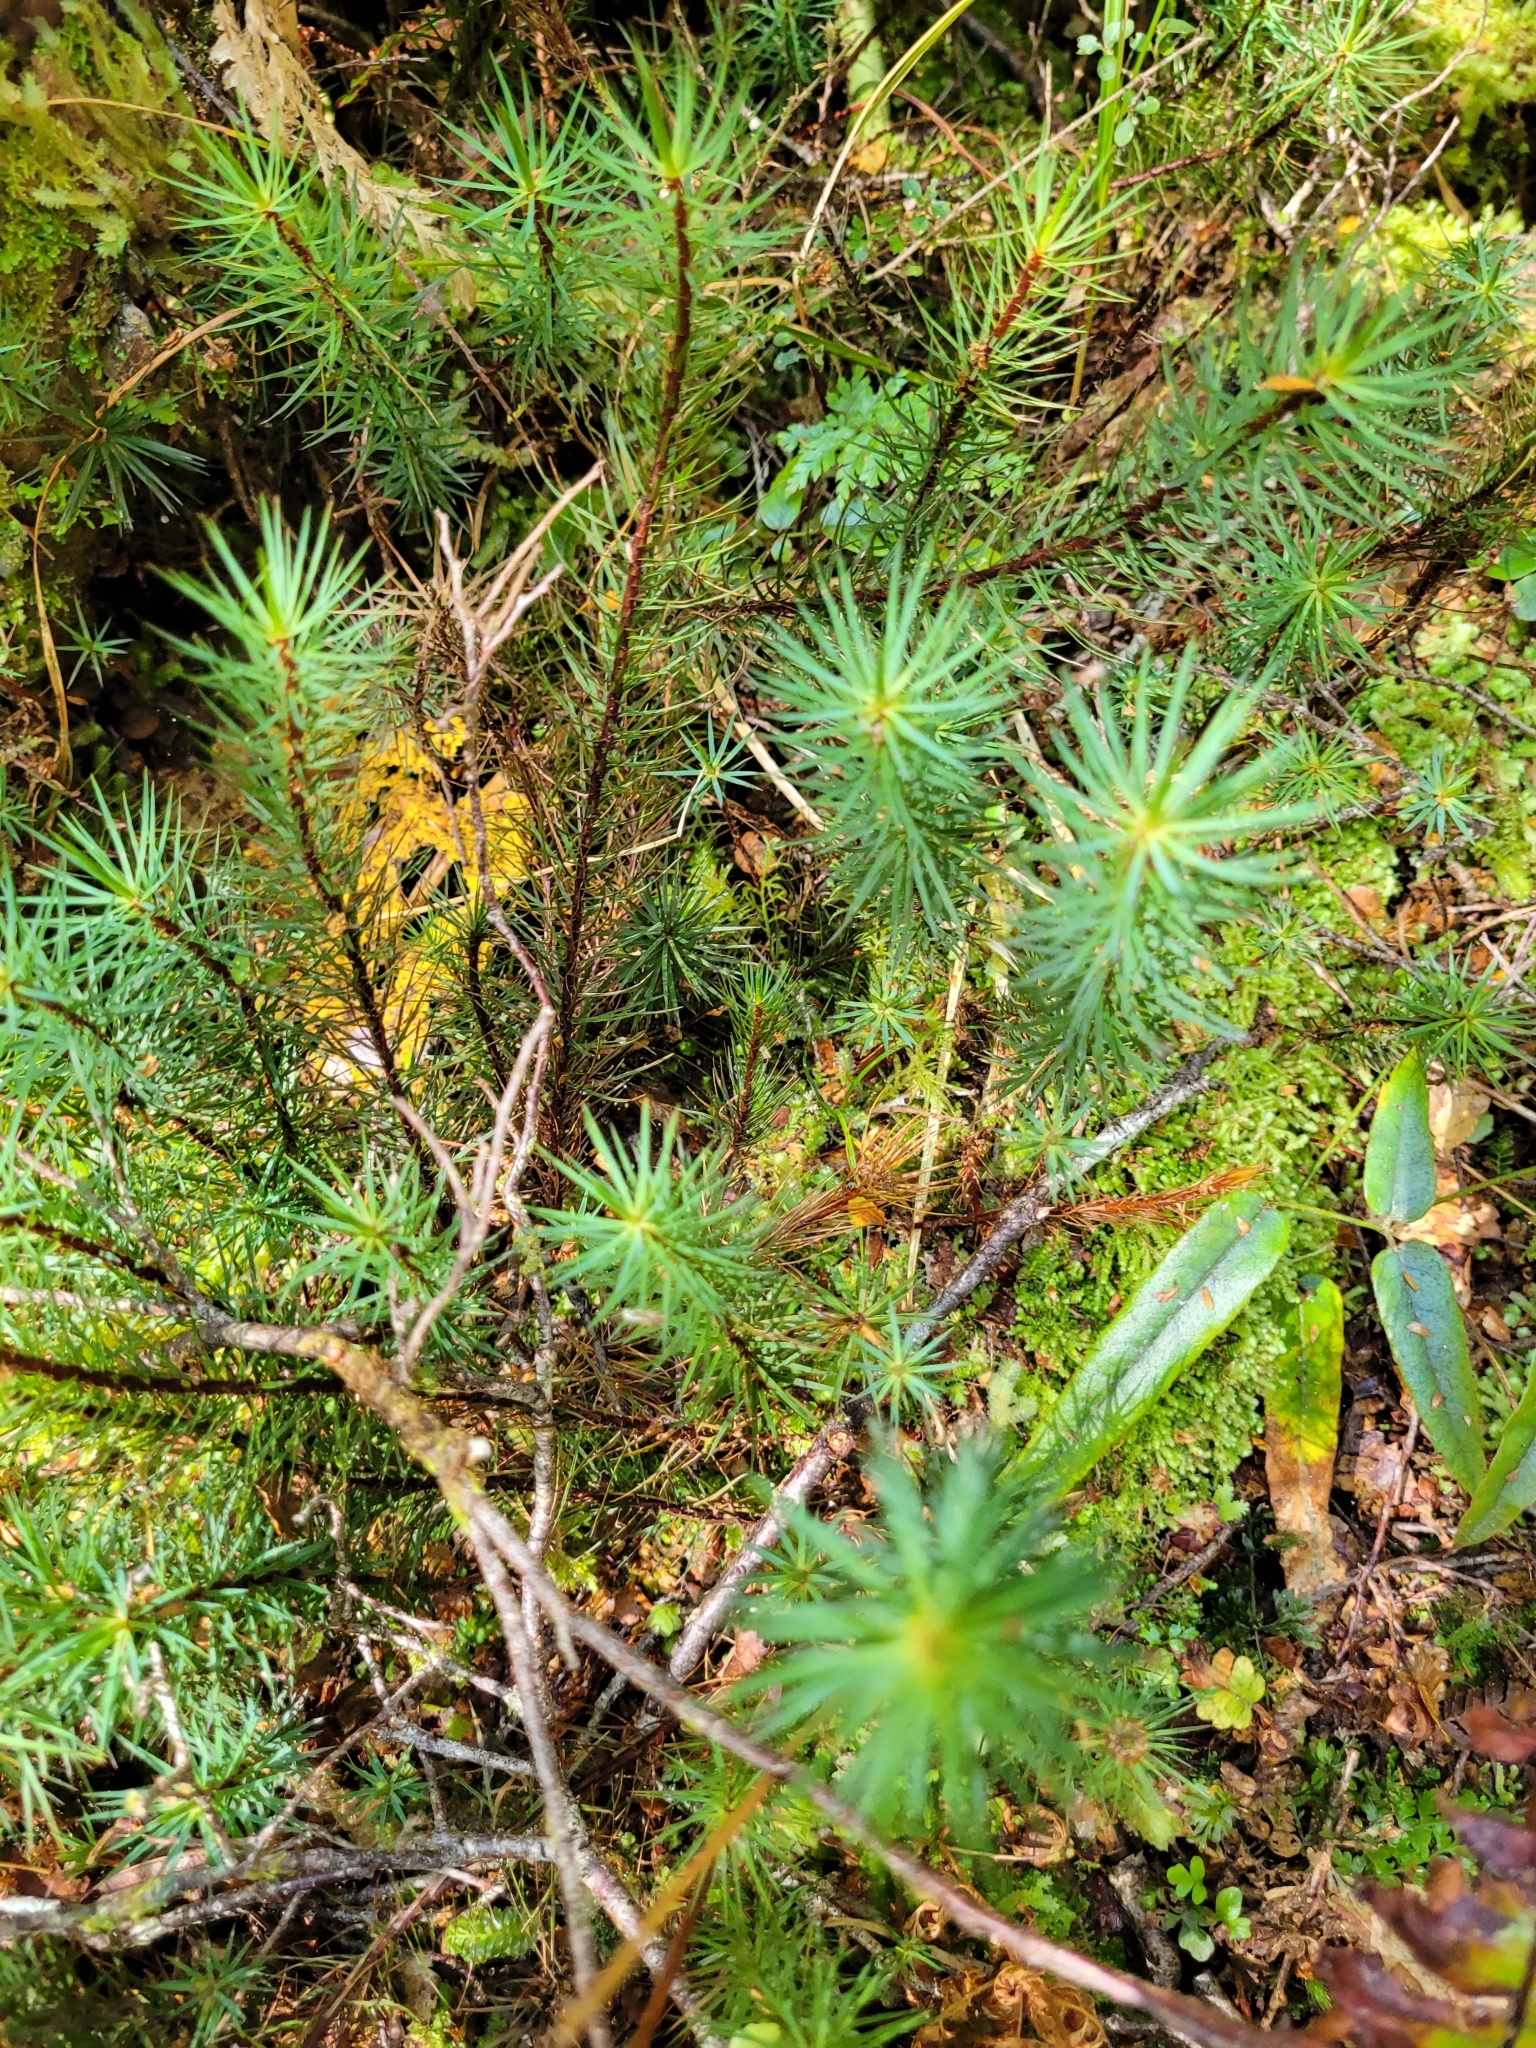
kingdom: Plantae
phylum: Bryophyta
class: Polytrichopsida
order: Polytrichales
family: Polytrichaceae
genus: Dawsonia
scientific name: Dawsonia superba
